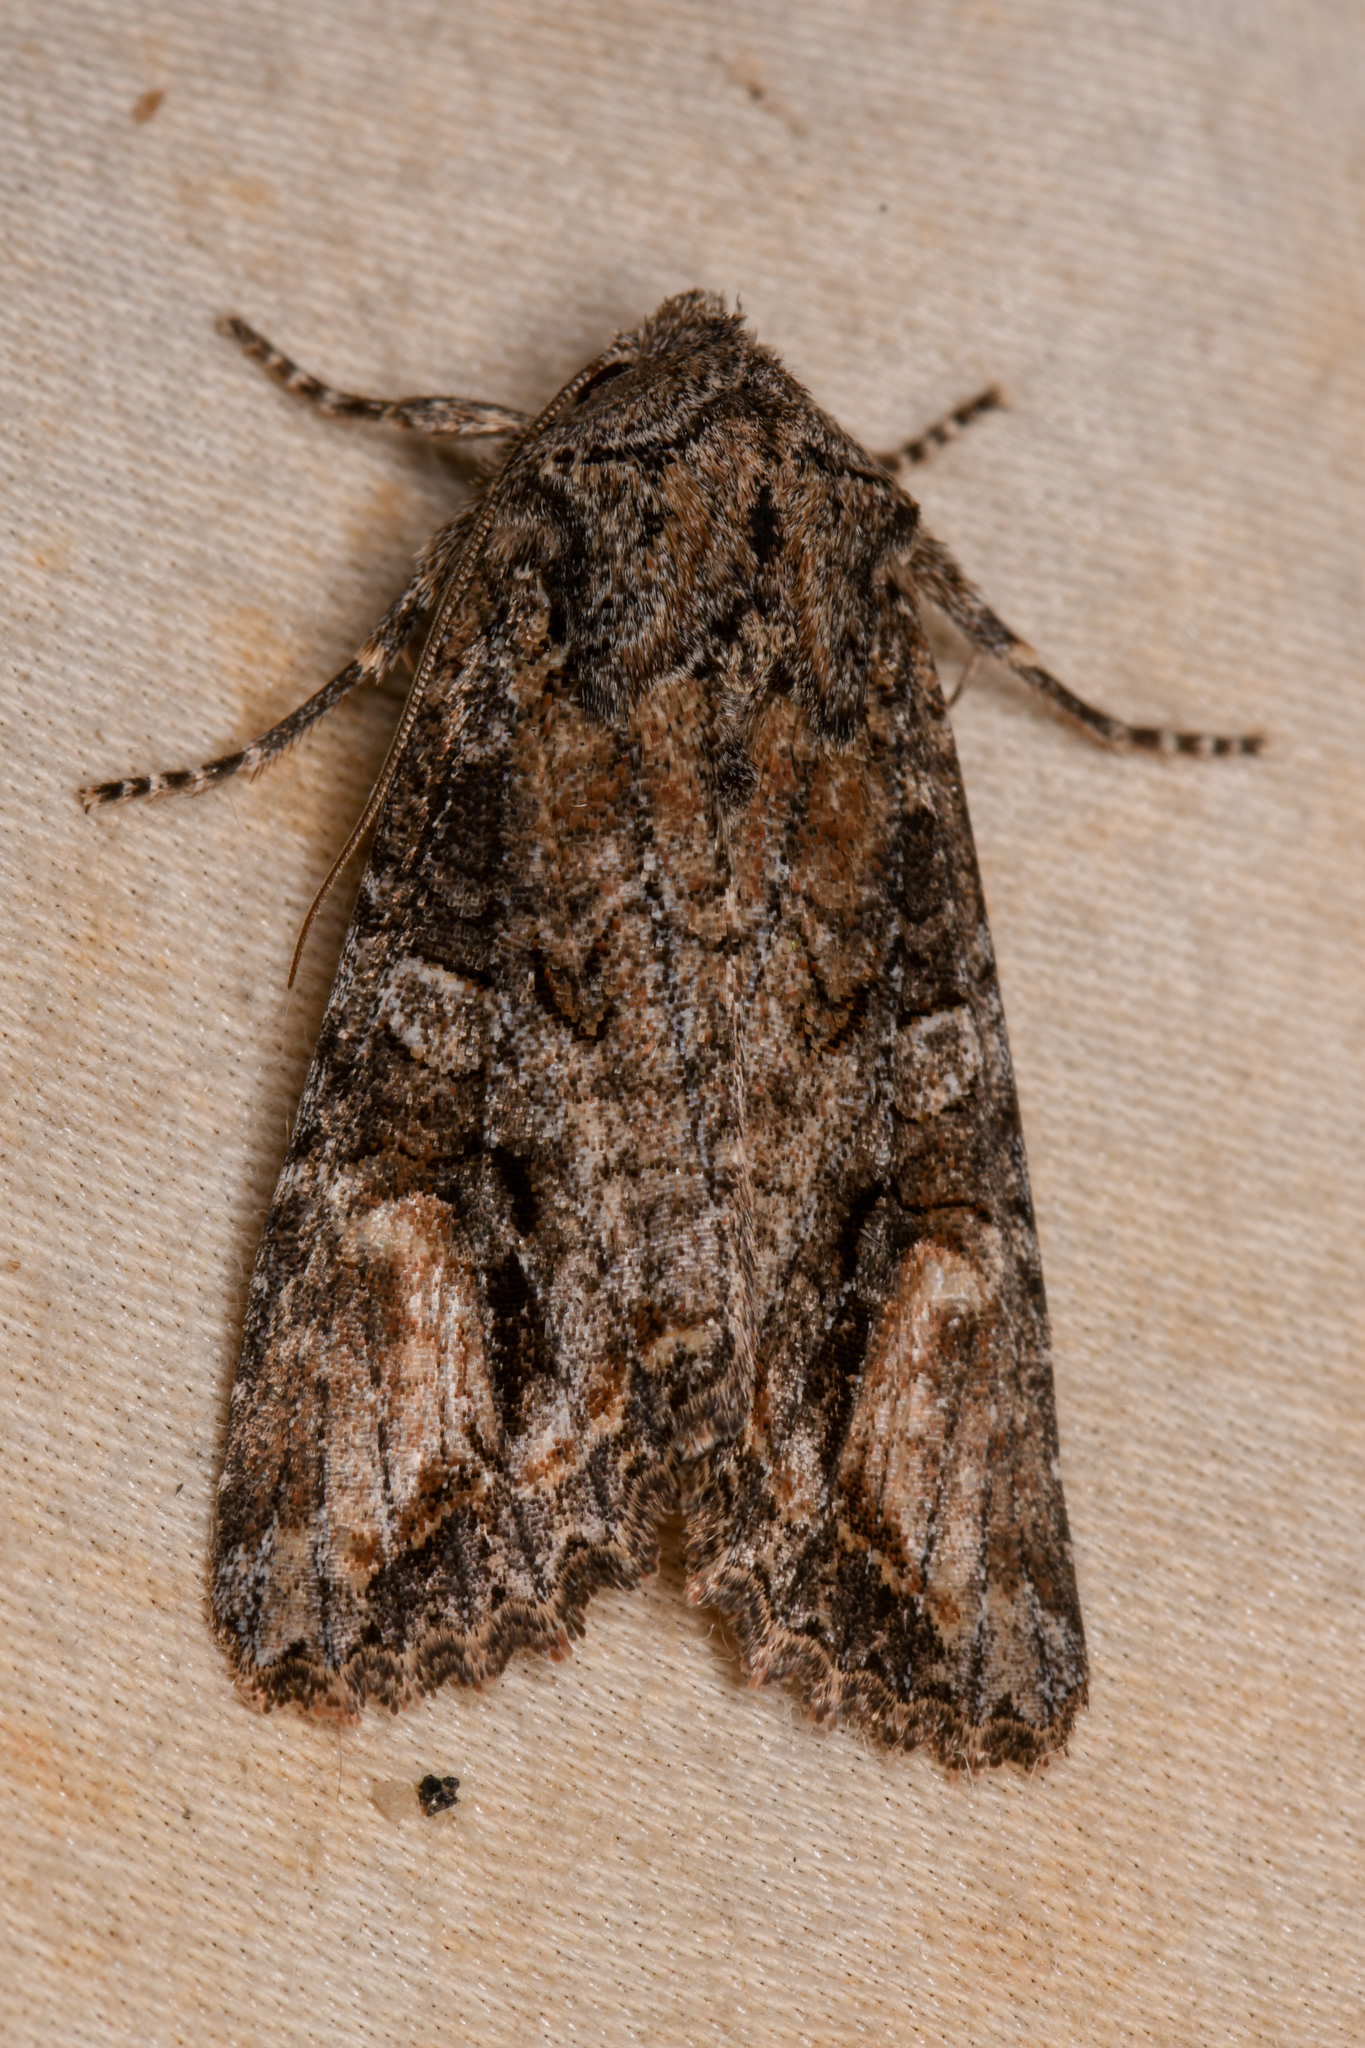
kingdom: Animalia
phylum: Arthropoda
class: Insecta
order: Lepidoptera
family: Noctuidae
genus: Egira
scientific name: Egira perlubens
